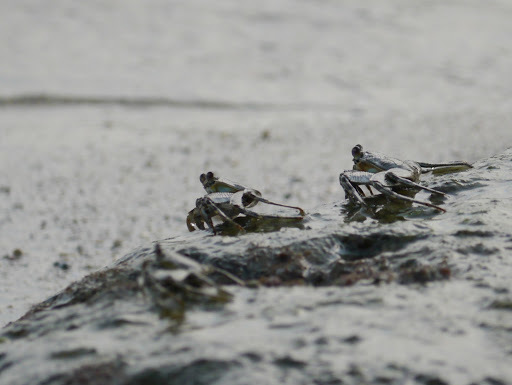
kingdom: Animalia
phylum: Arthropoda
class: Malacostraca
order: Decapoda
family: Grapsidae
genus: Grapsus
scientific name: Grapsus adscensionis
